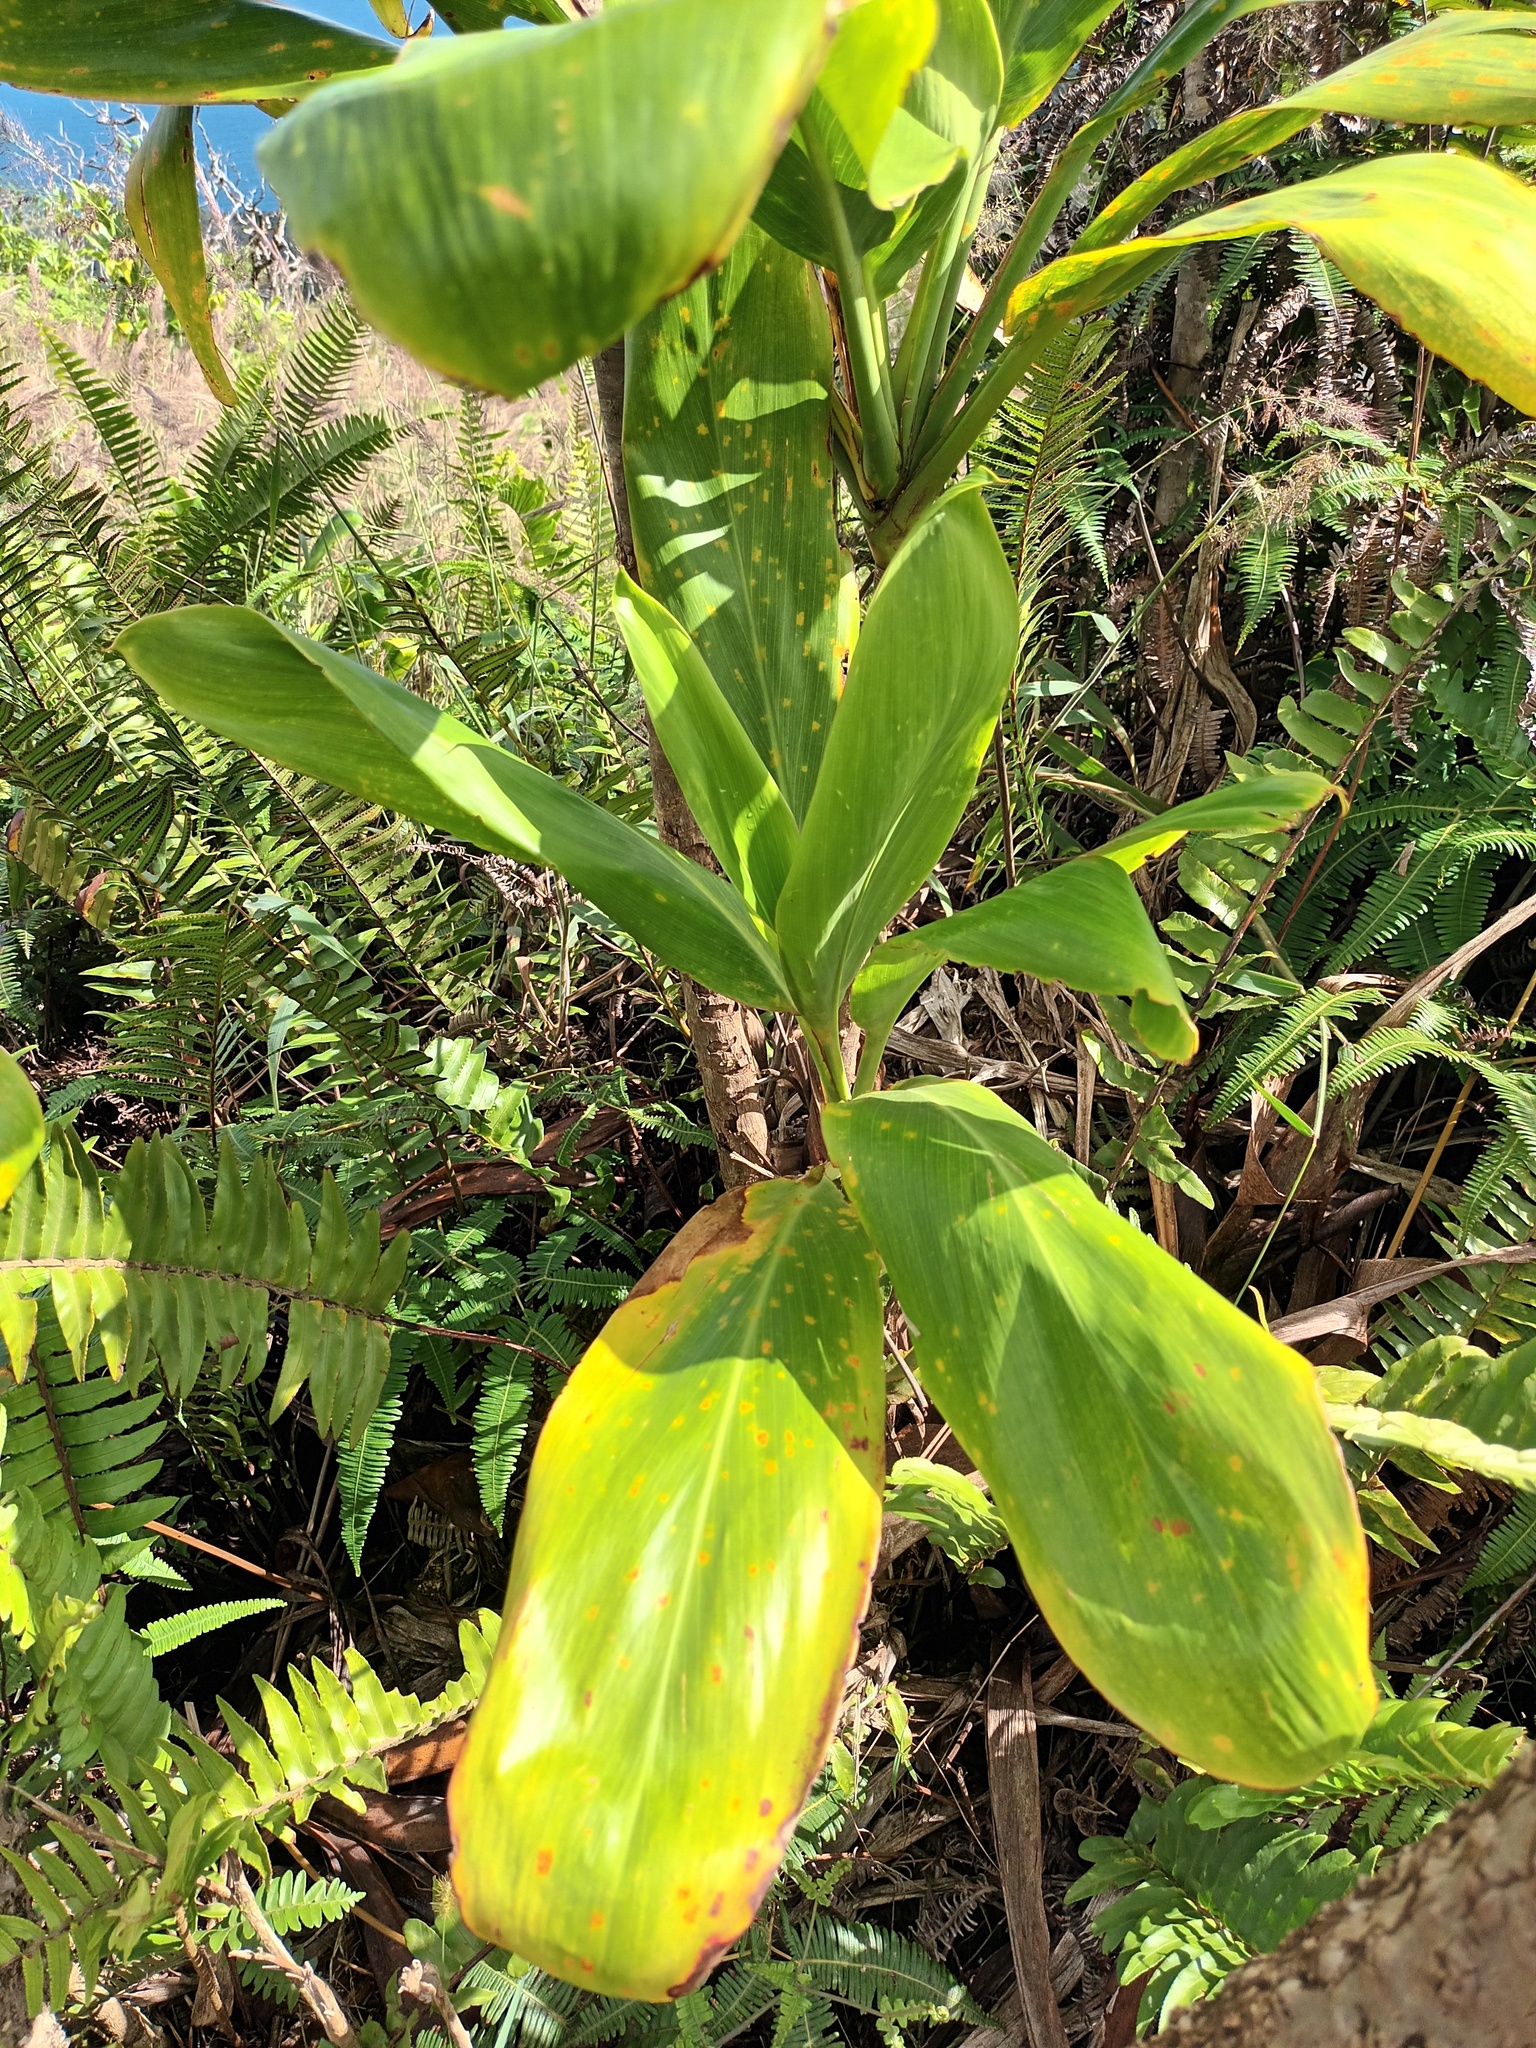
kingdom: Plantae
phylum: Tracheophyta
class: Liliopsida
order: Asparagales
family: Asparagaceae
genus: Cordyline
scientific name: Cordyline fruticosa
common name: Good-luck-plant
